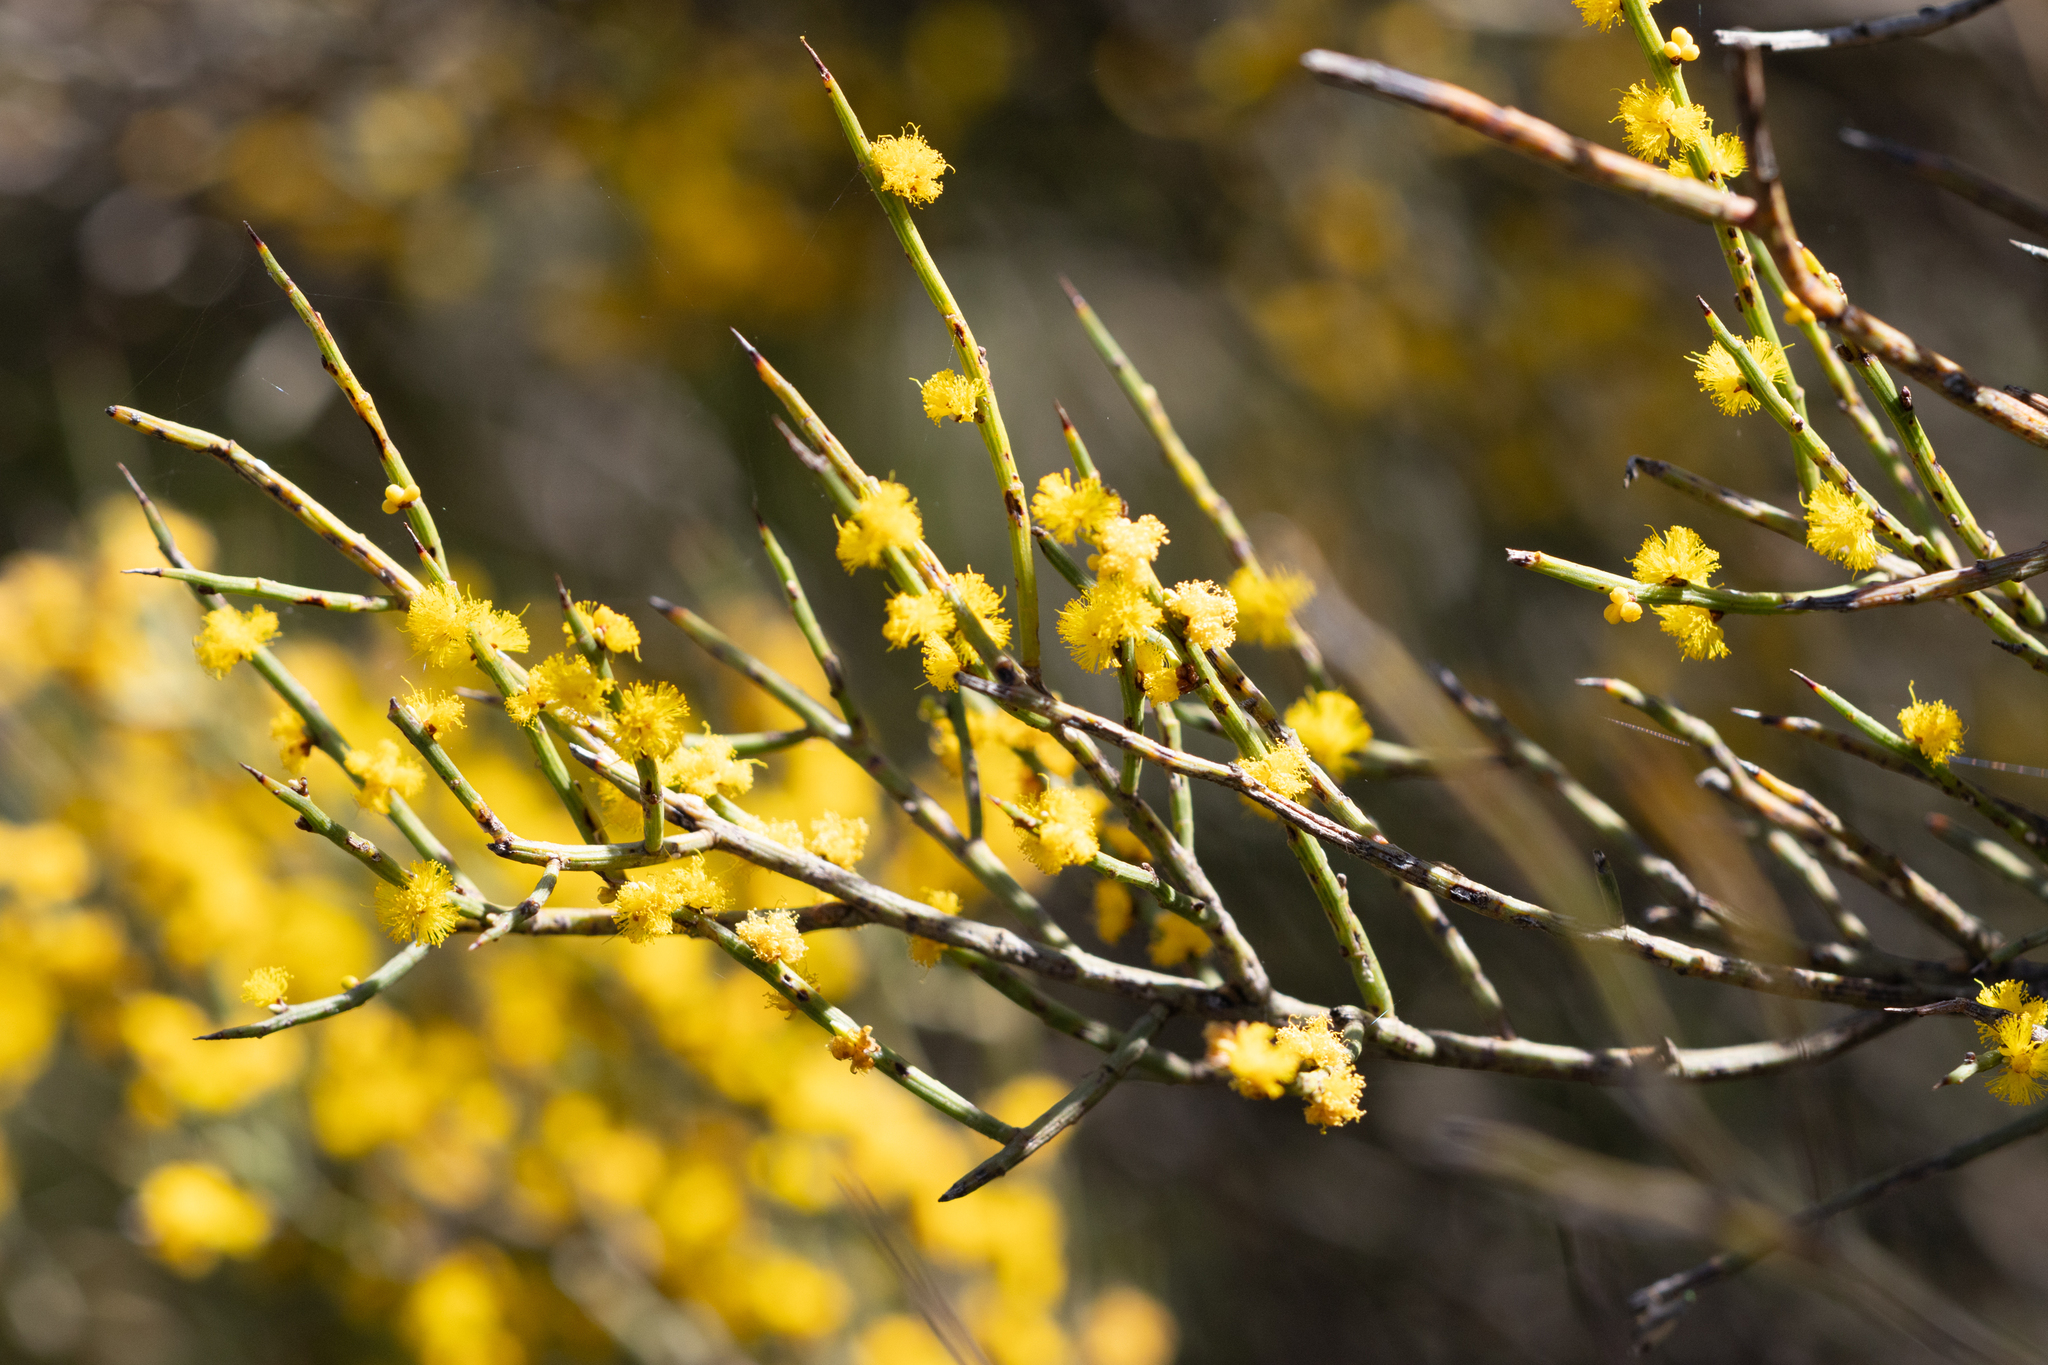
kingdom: Plantae
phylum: Tracheophyta
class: Magnoliopsida
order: Fabales
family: Fabaceae
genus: Acacia
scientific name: Acacia spinescens
